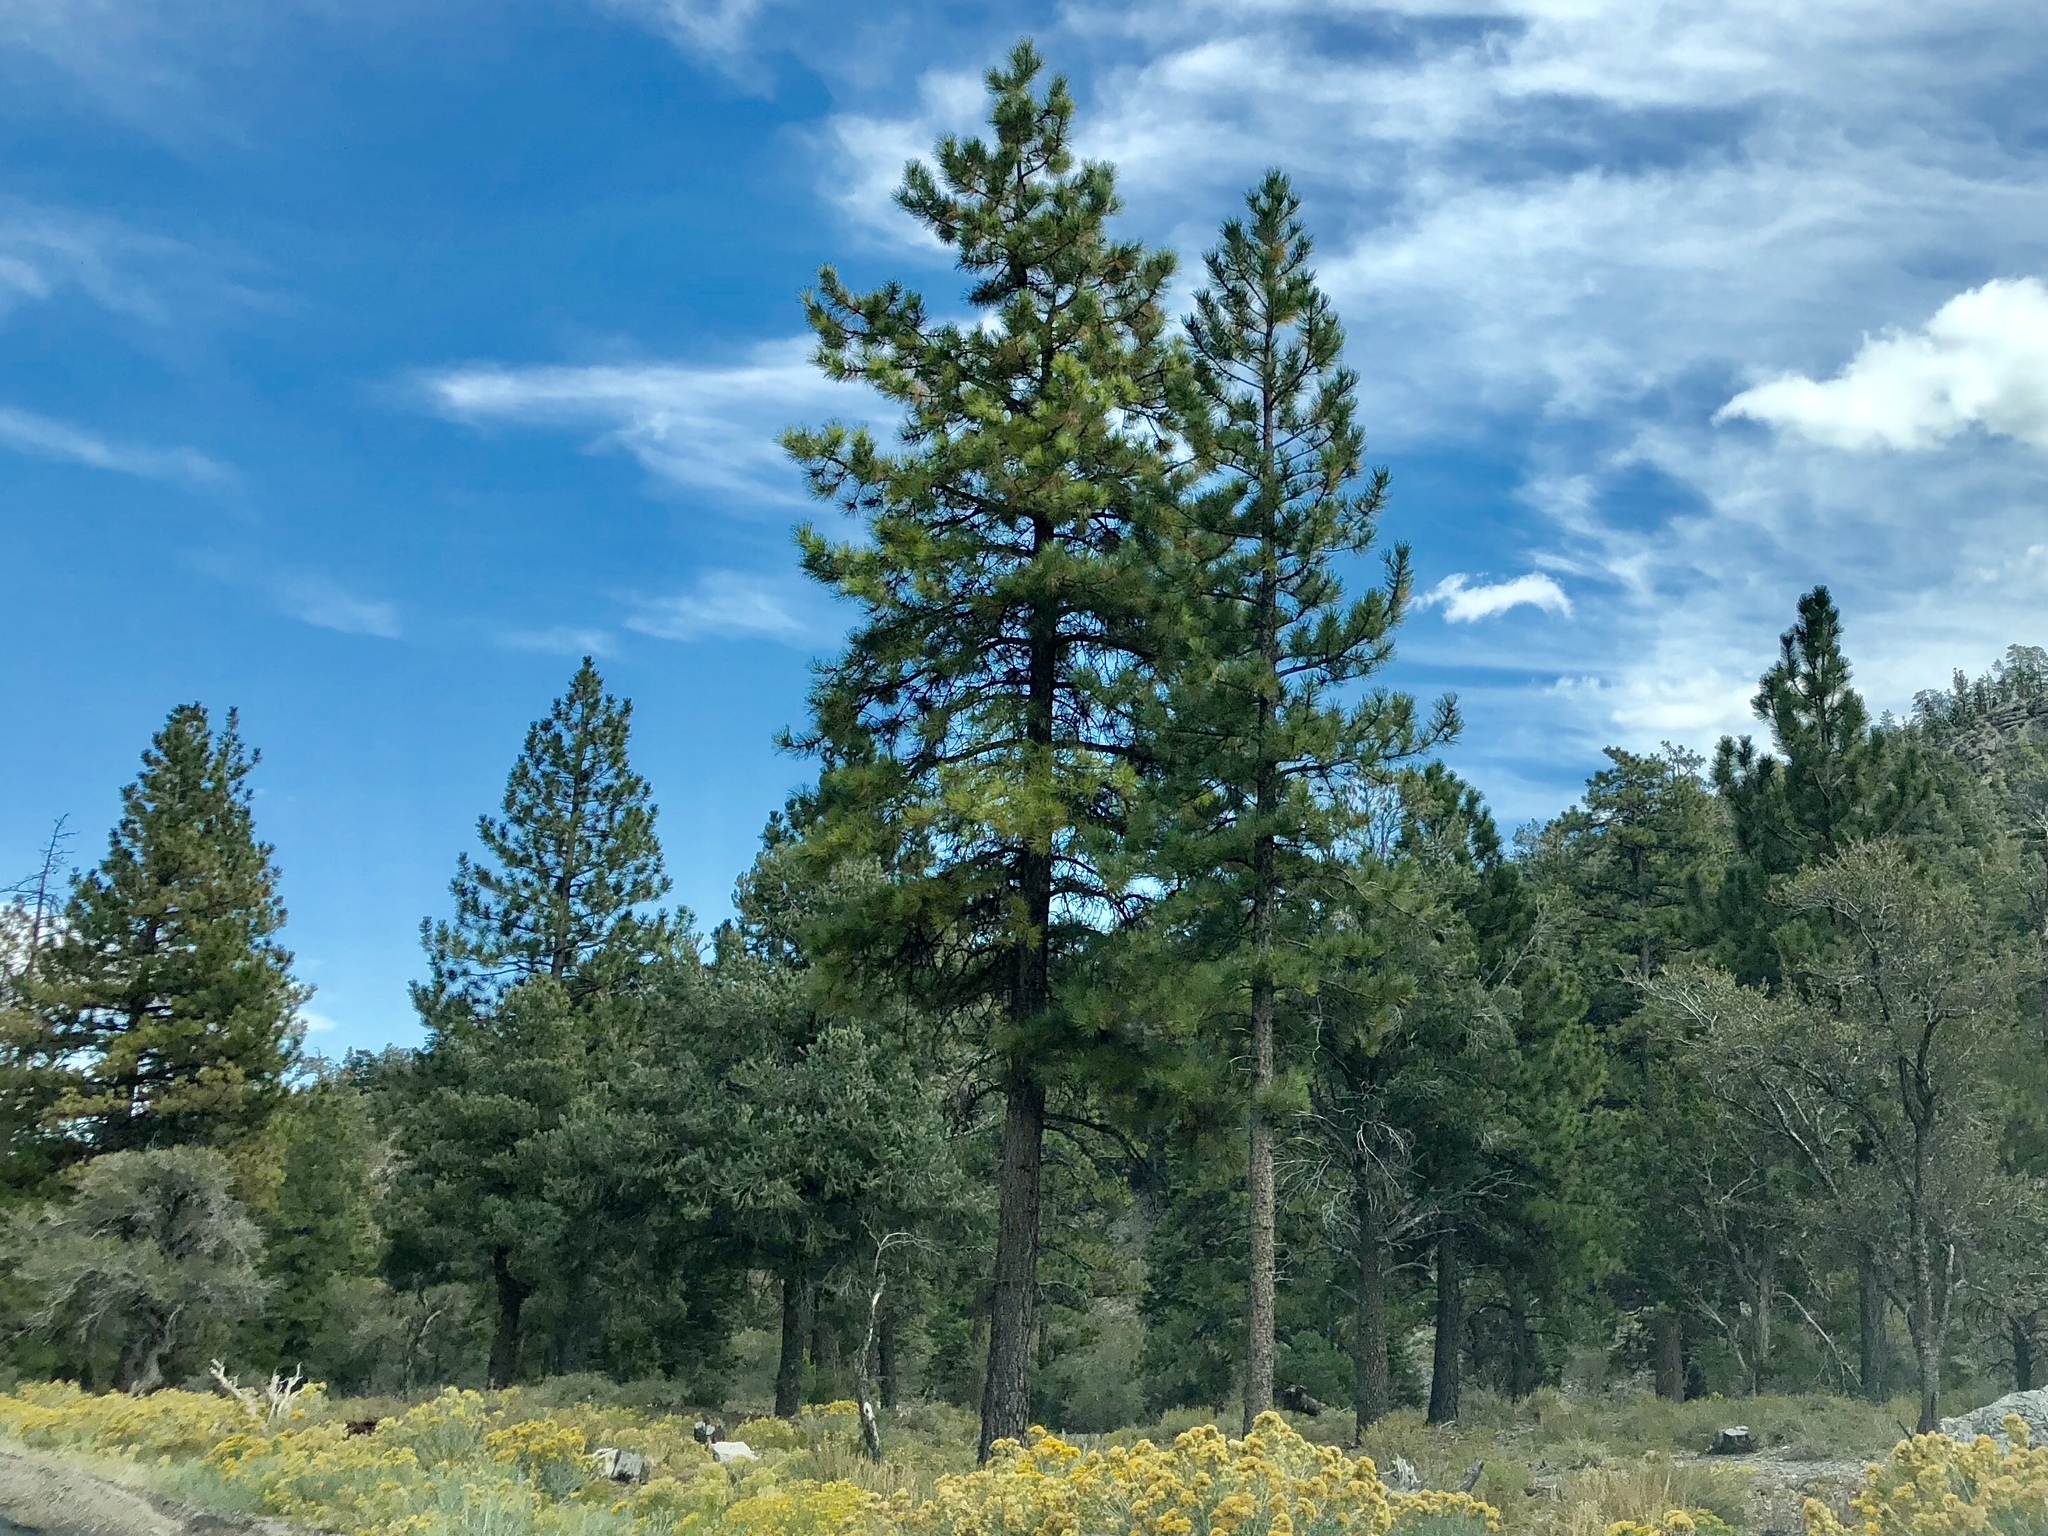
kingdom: Plantae
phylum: Tracheophyta
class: Pinopsida
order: Pinales
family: Pinaceae
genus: Pinus
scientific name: Pinus ponderosa
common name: Western yellow-pine
